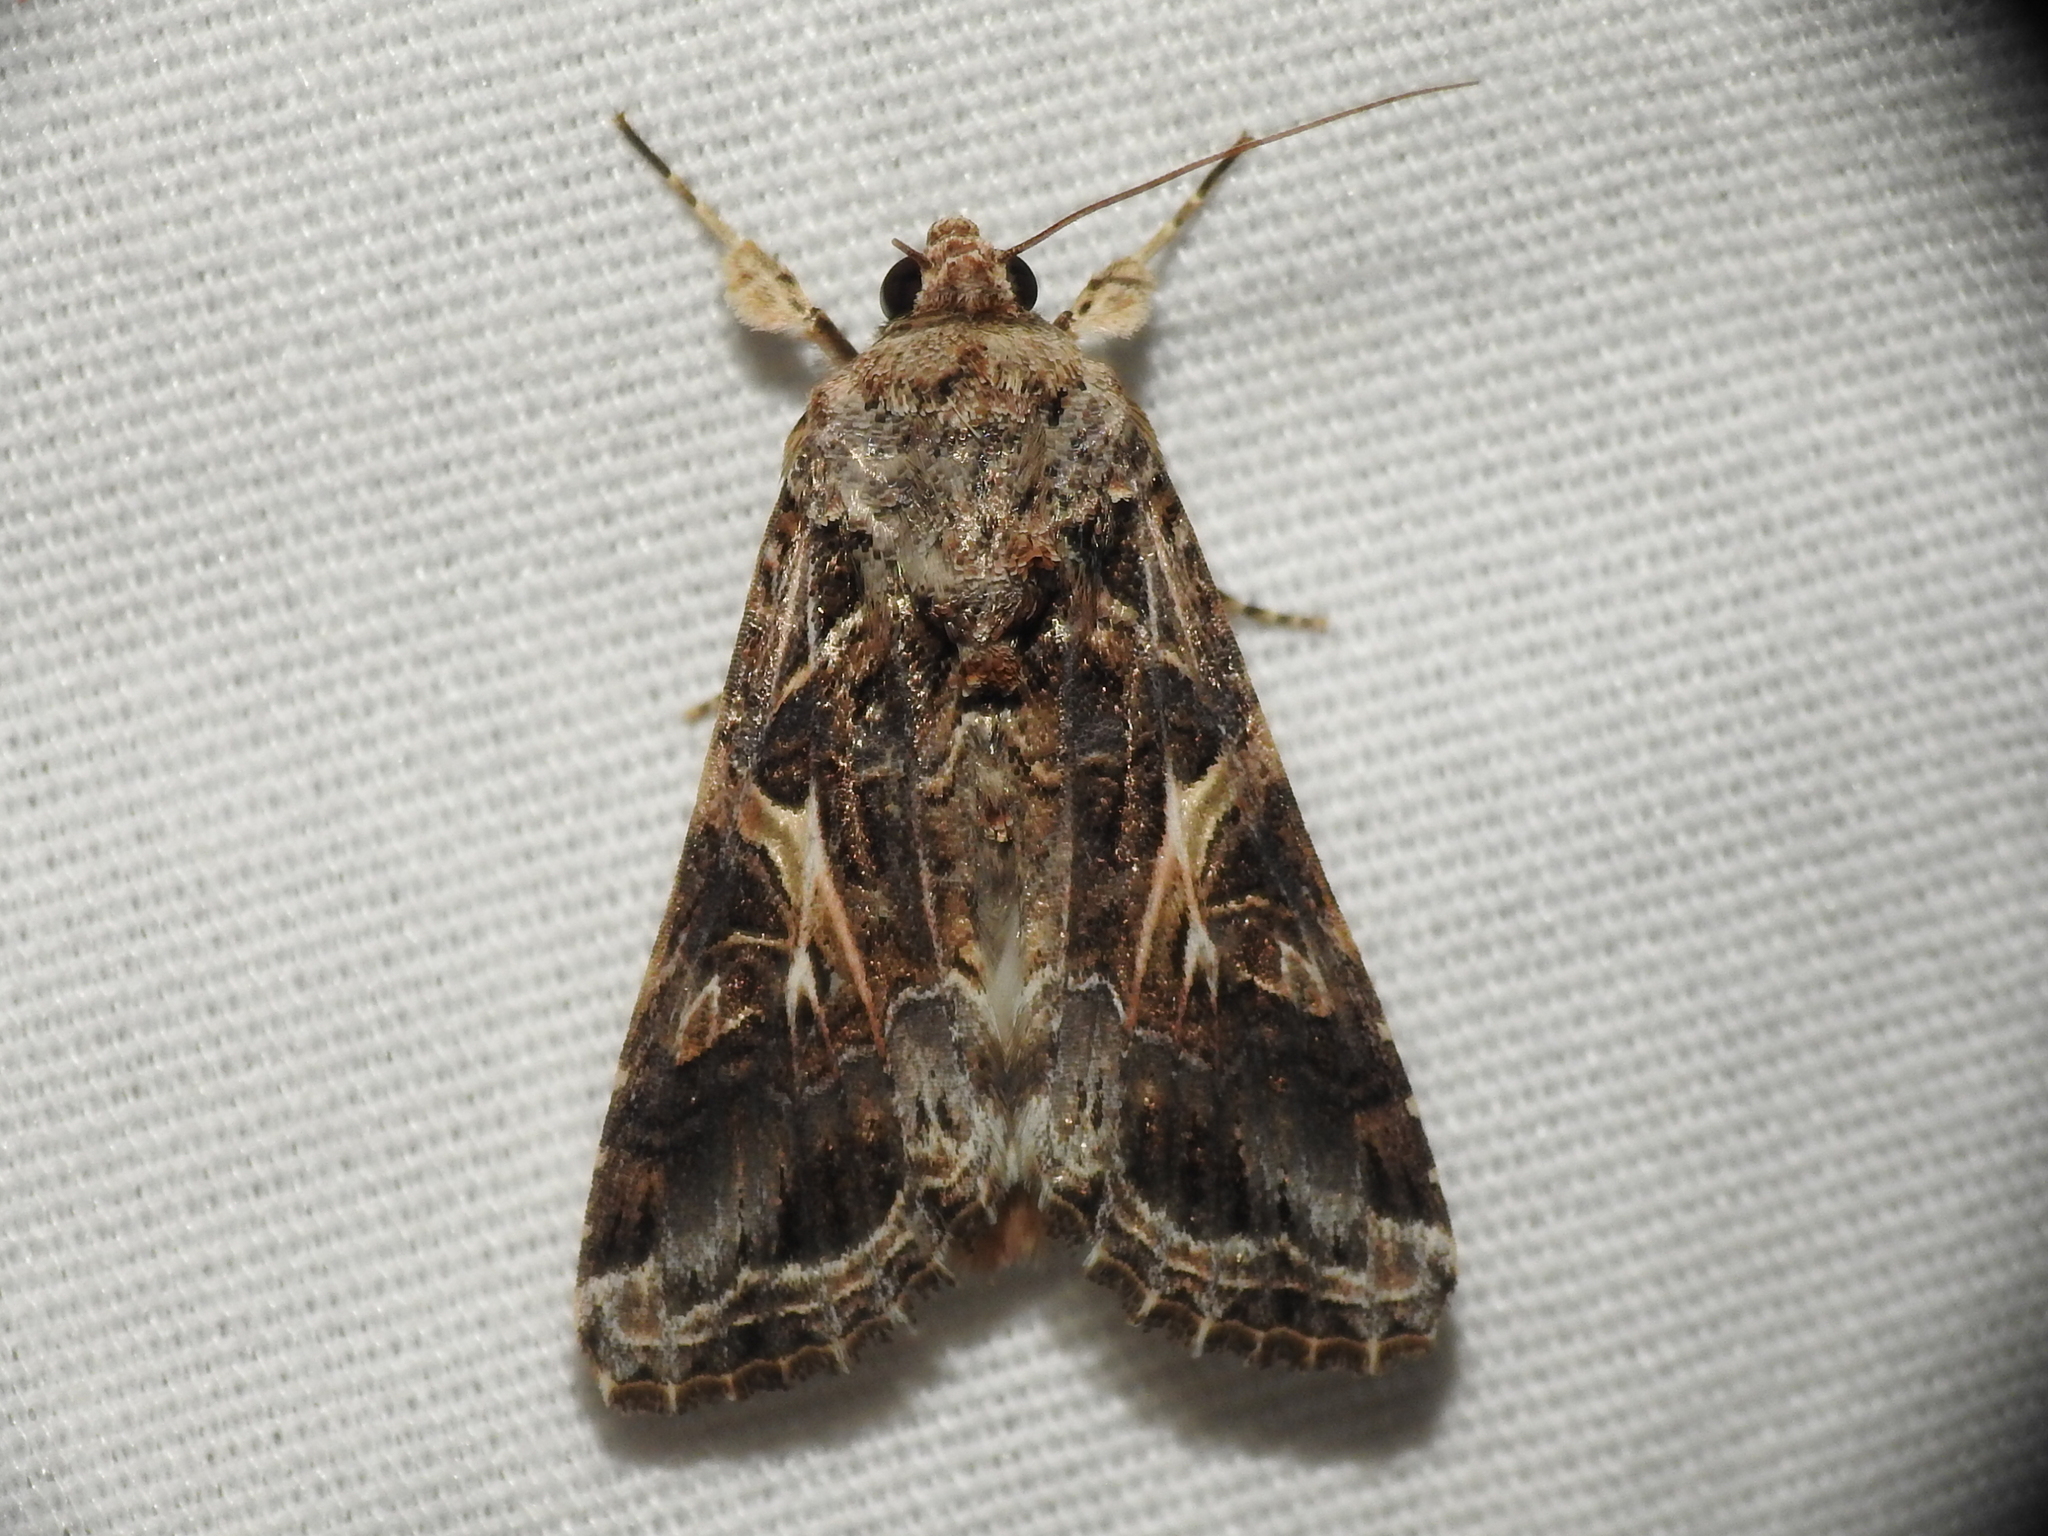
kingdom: Animalia
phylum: Arthropoda
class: Insecta
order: Lepidoptera
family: Noctuidae
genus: Spodoptera
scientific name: Spodoptera ornithogalli
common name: Yellow-striped armyworm
